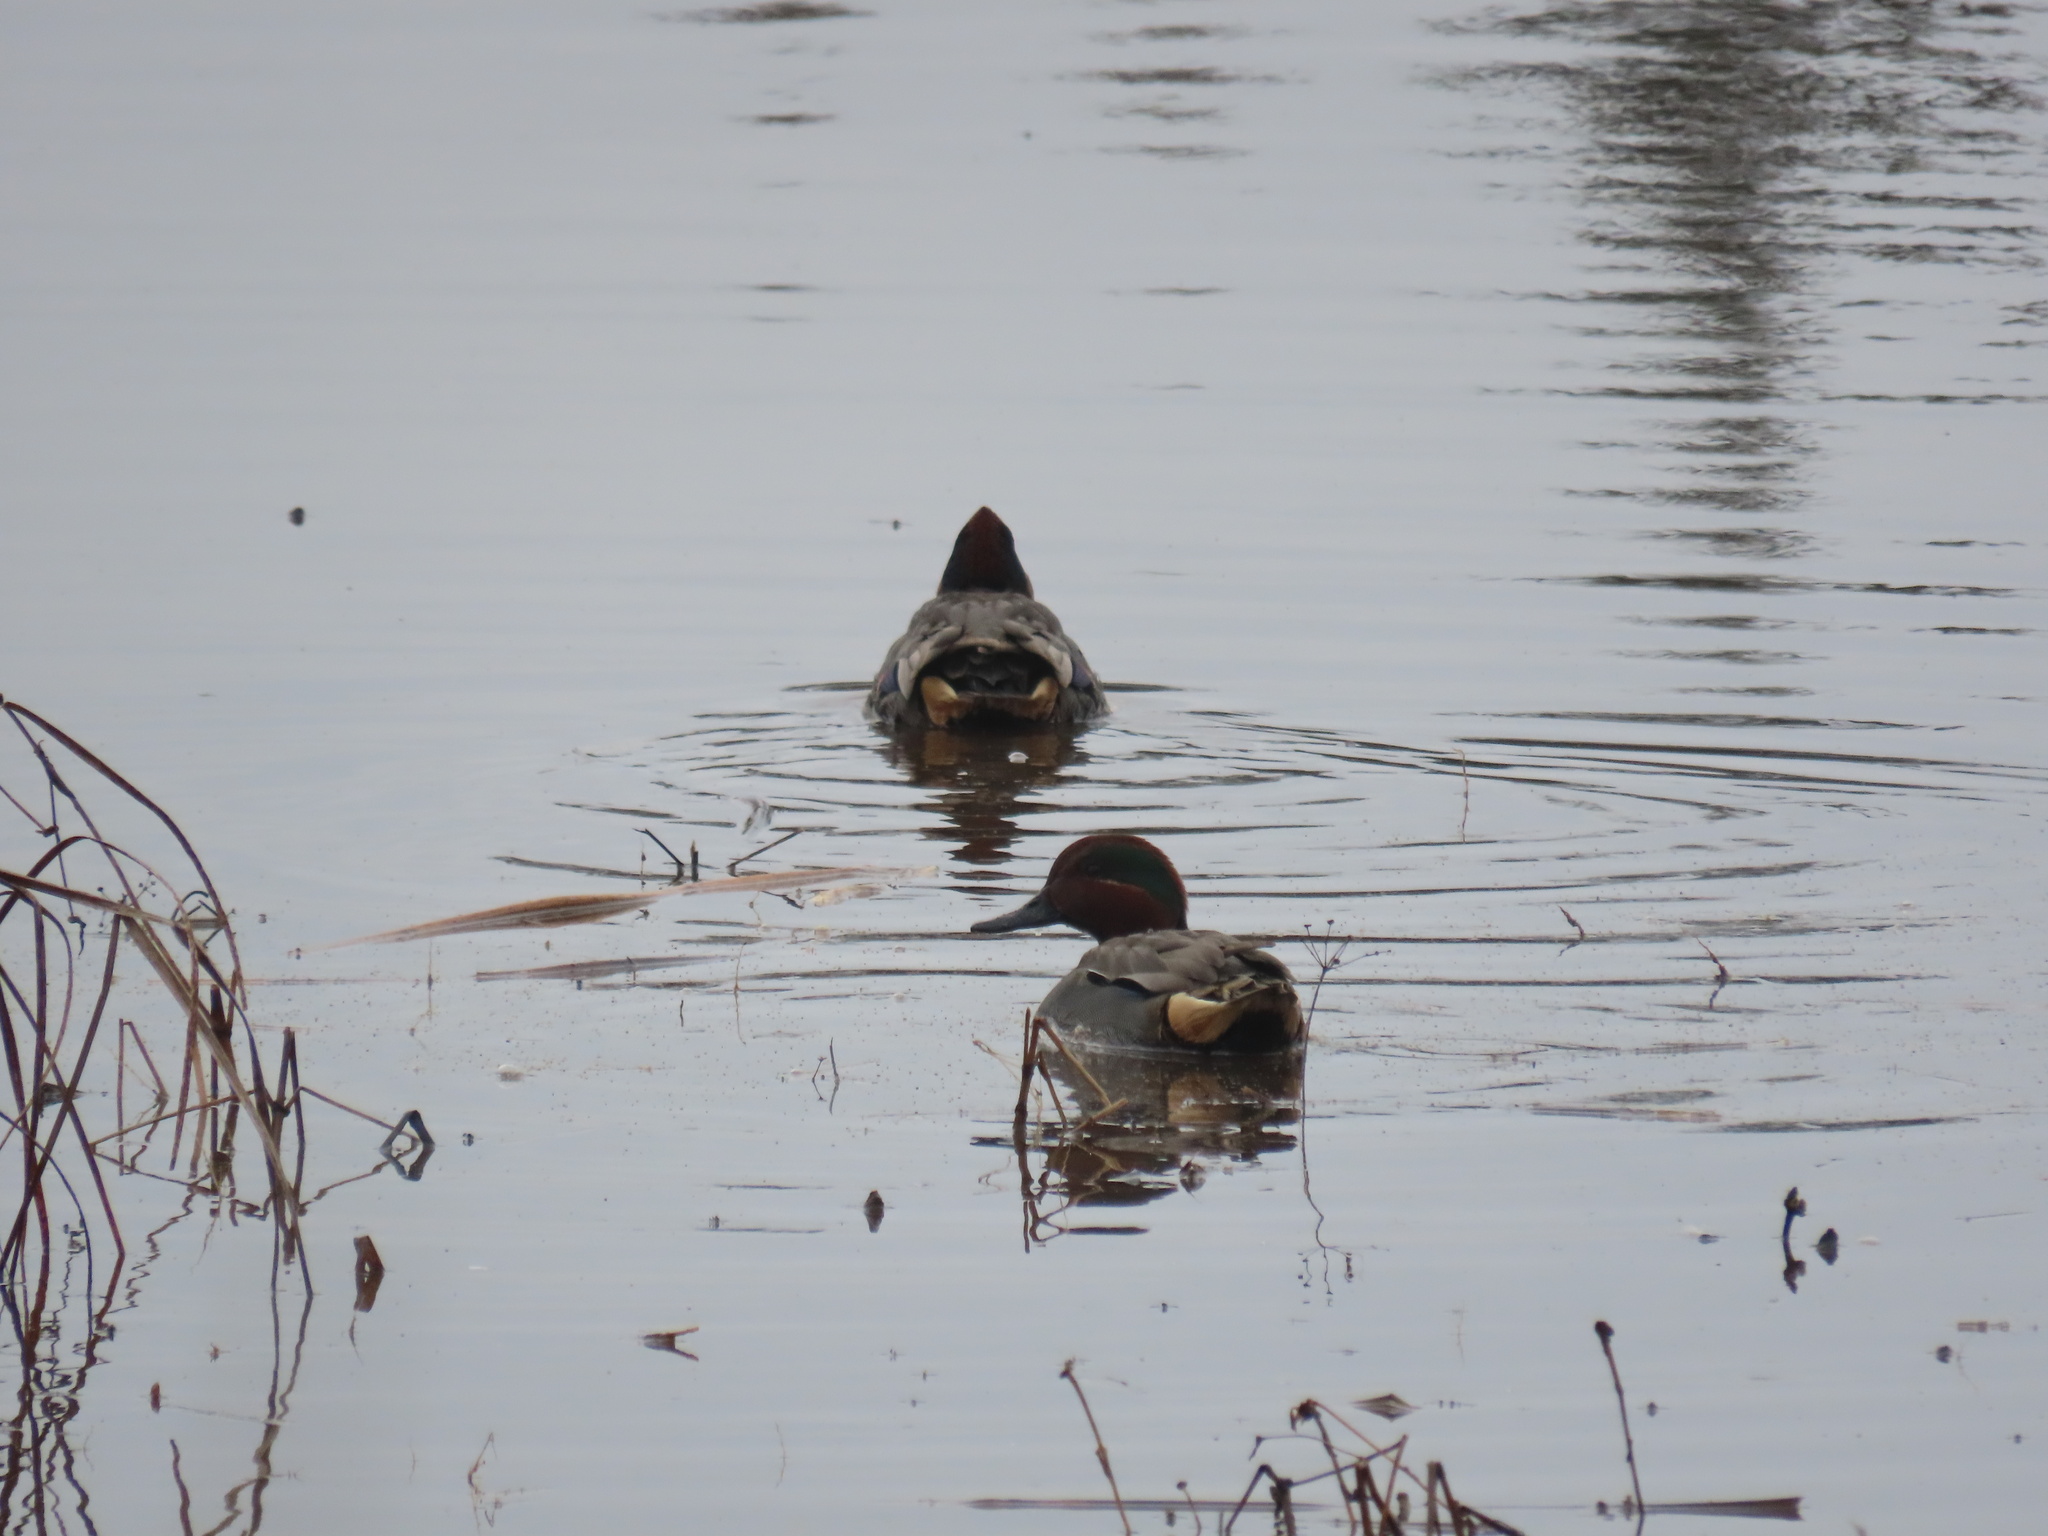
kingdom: Animalia
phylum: Chordata
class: Aves
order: Anseriformes
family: Anatidae
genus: Anas
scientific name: Anas crecca
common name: Eurasian teal
